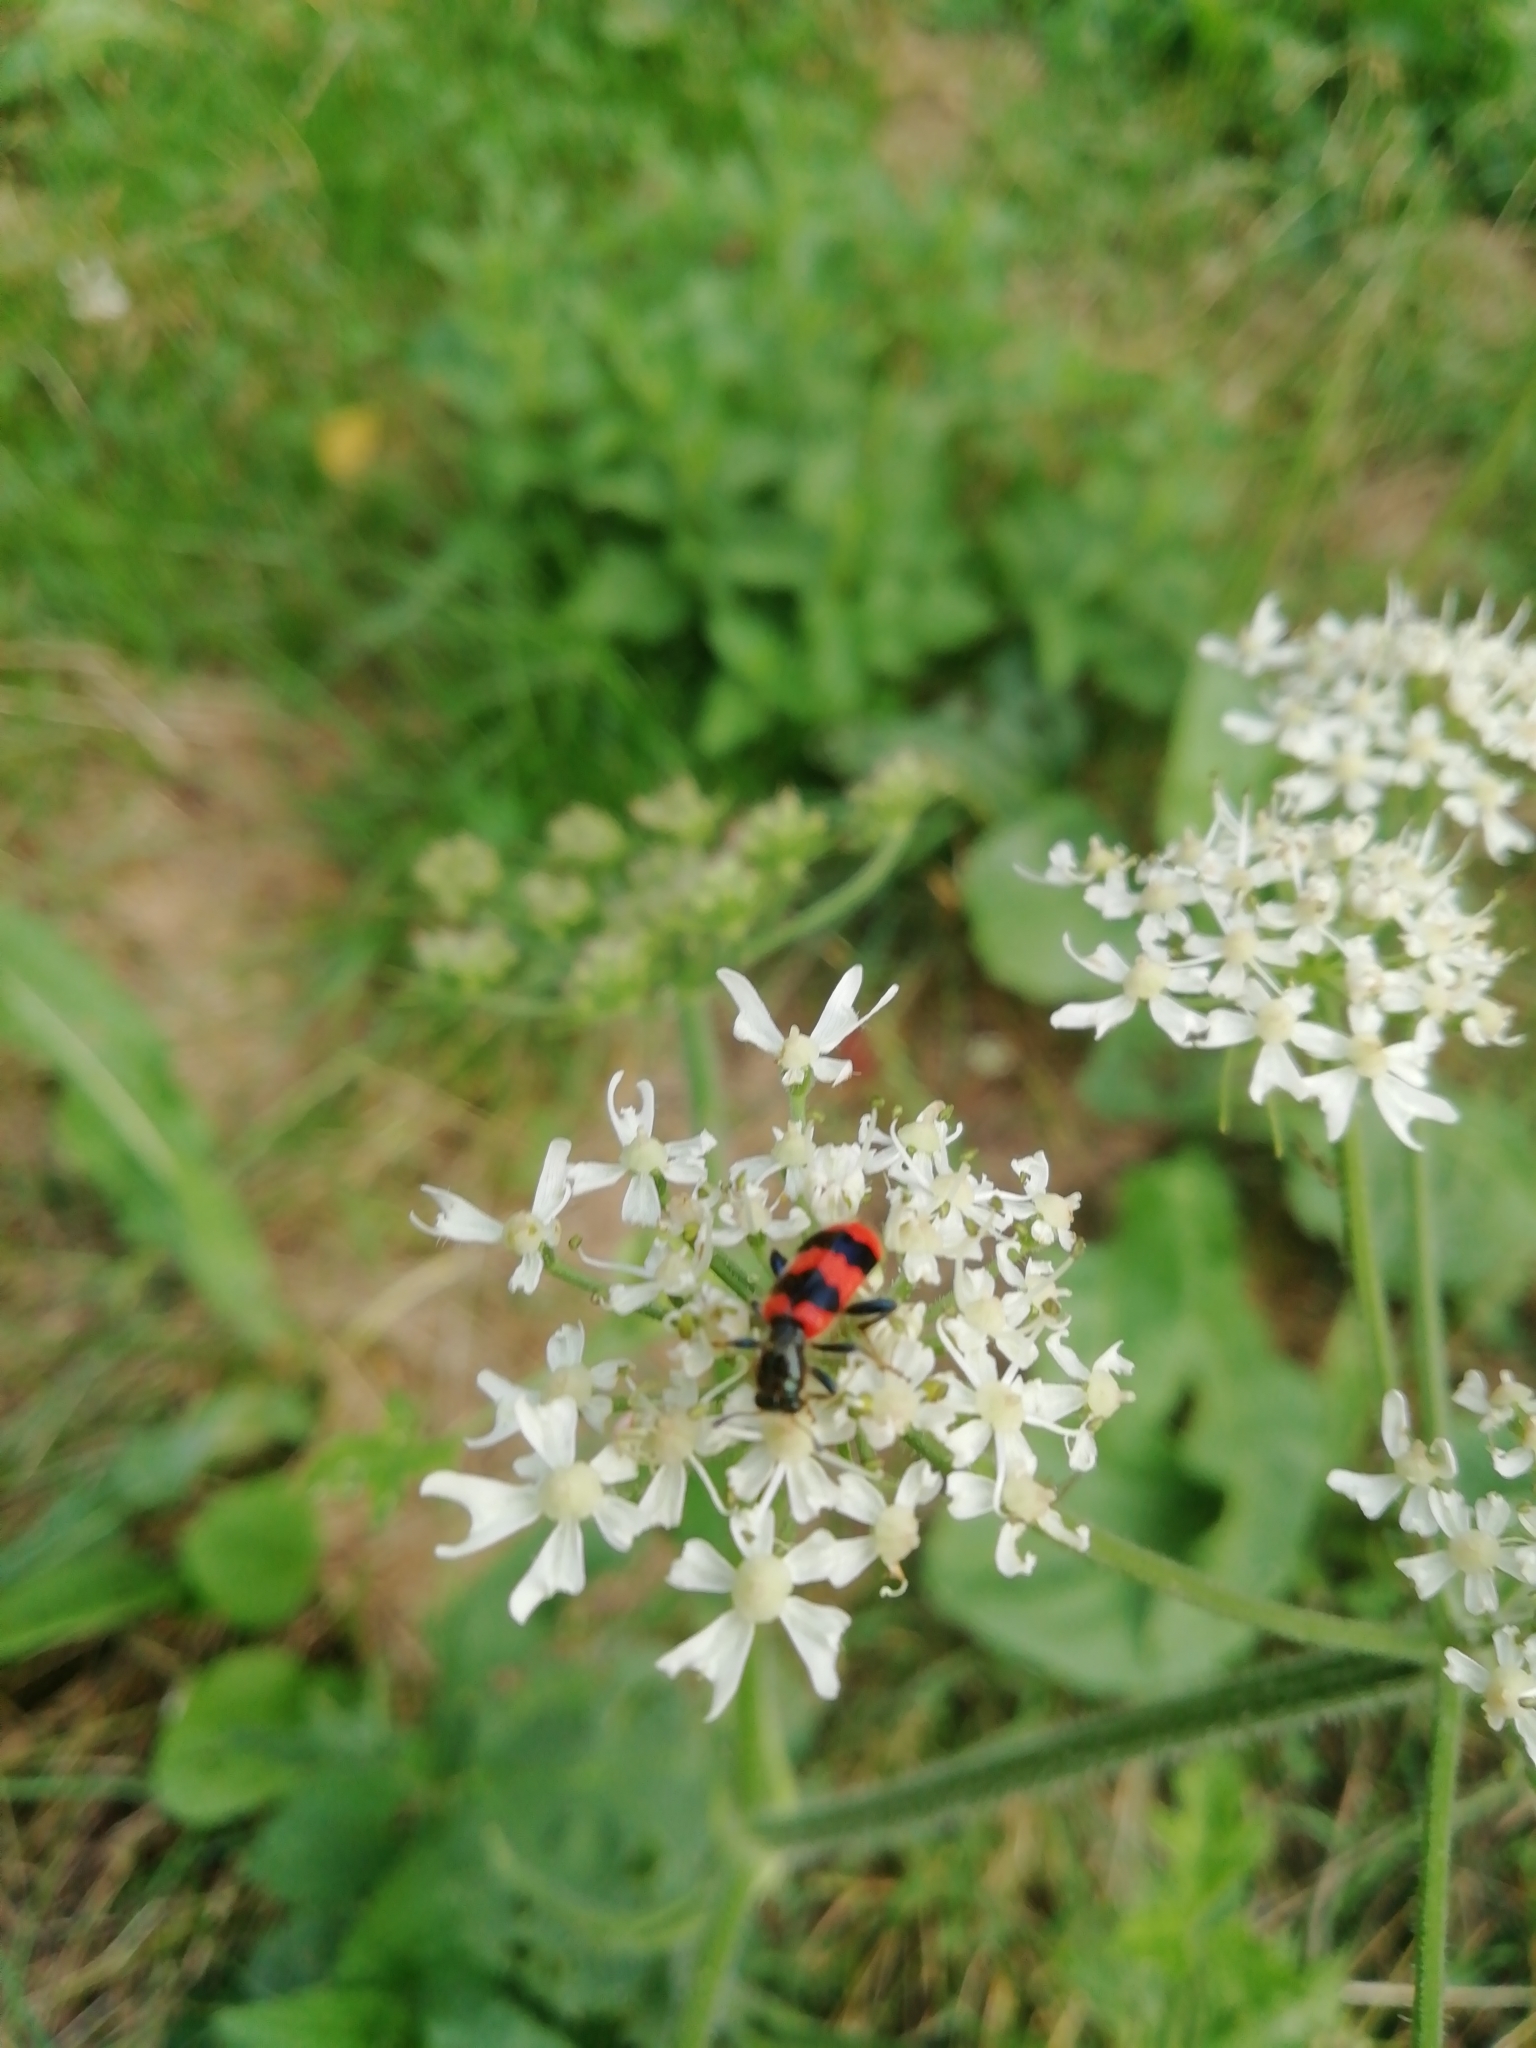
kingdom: Animalia
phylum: Arthropoda
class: Insecta
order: Coleoptera
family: Cleridae
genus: Trichodes
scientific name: Trichodes apiarius
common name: Bee-eating beetle
